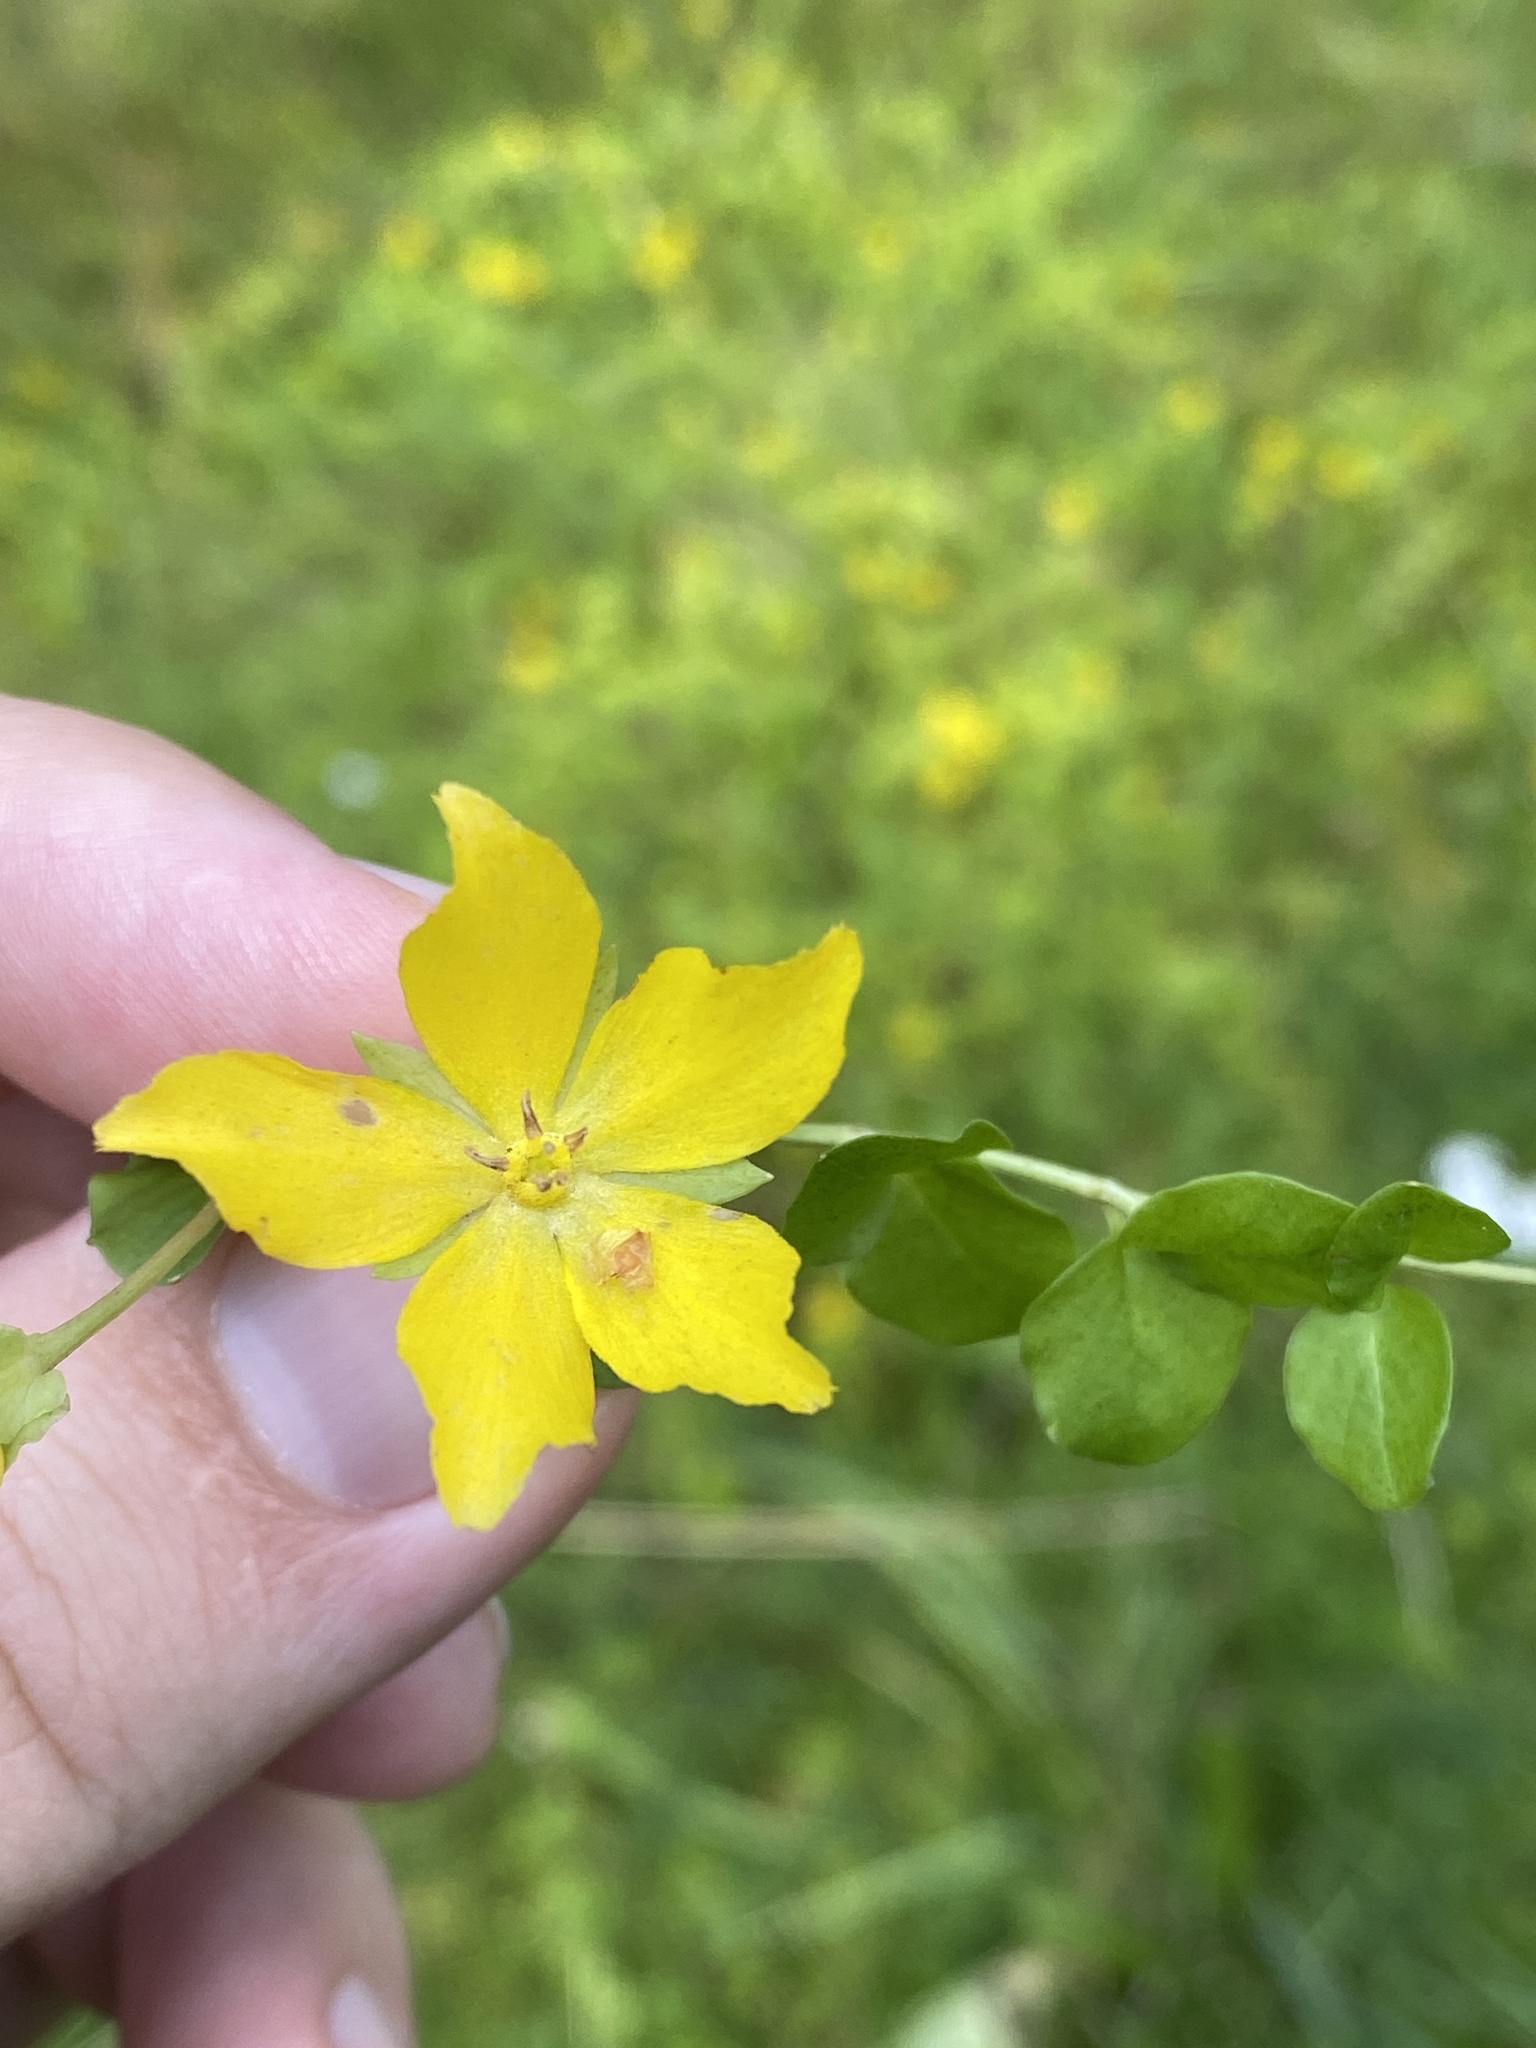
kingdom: Plantae
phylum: Tracheophyta
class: Magnoliopsida
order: Ericales
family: Primulaceae
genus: Lysimachia
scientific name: Lysimachia nummularia
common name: Moneywort
